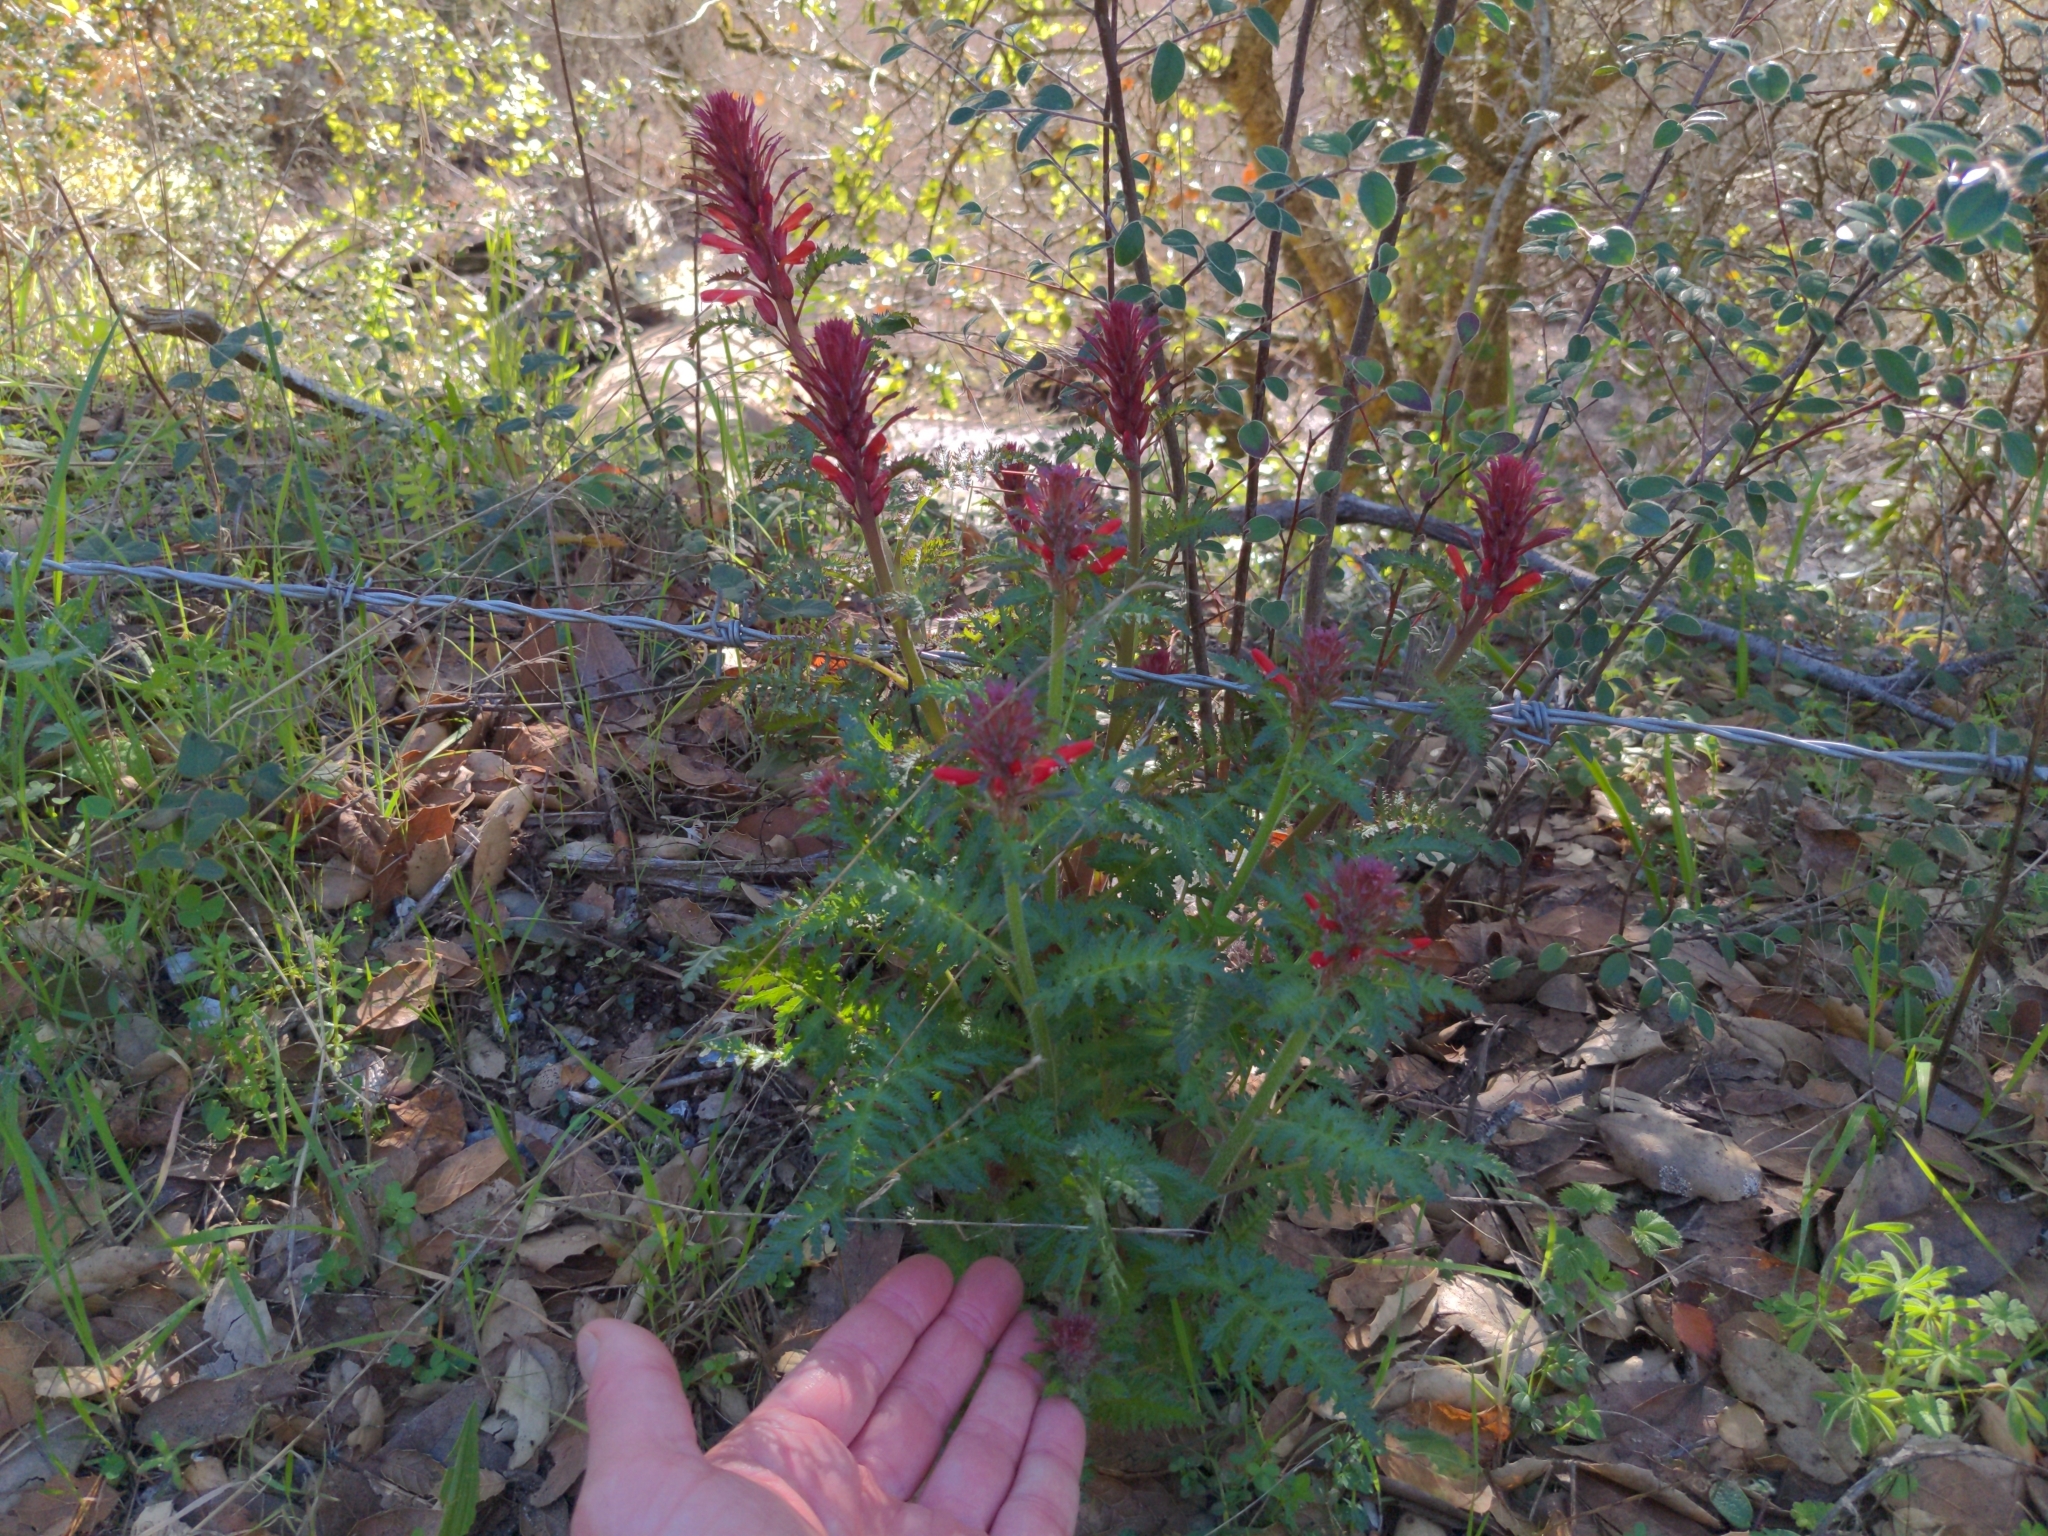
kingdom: Plantae
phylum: Tracheophyta
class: Magnoliopsida
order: Lamiales
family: Orobanchaceae
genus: Pedicularis
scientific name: Pedicularis densiflora
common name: Indian warrior
